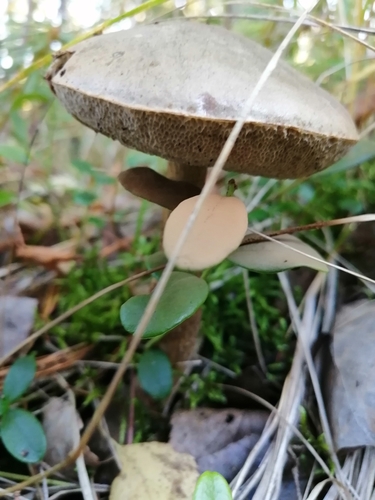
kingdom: Fungi
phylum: Basidiomycota
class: Agaricomycetes
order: Boletales
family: Boletaceae
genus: Leccinum
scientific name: Leccinum holopus
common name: Ghost bolete
